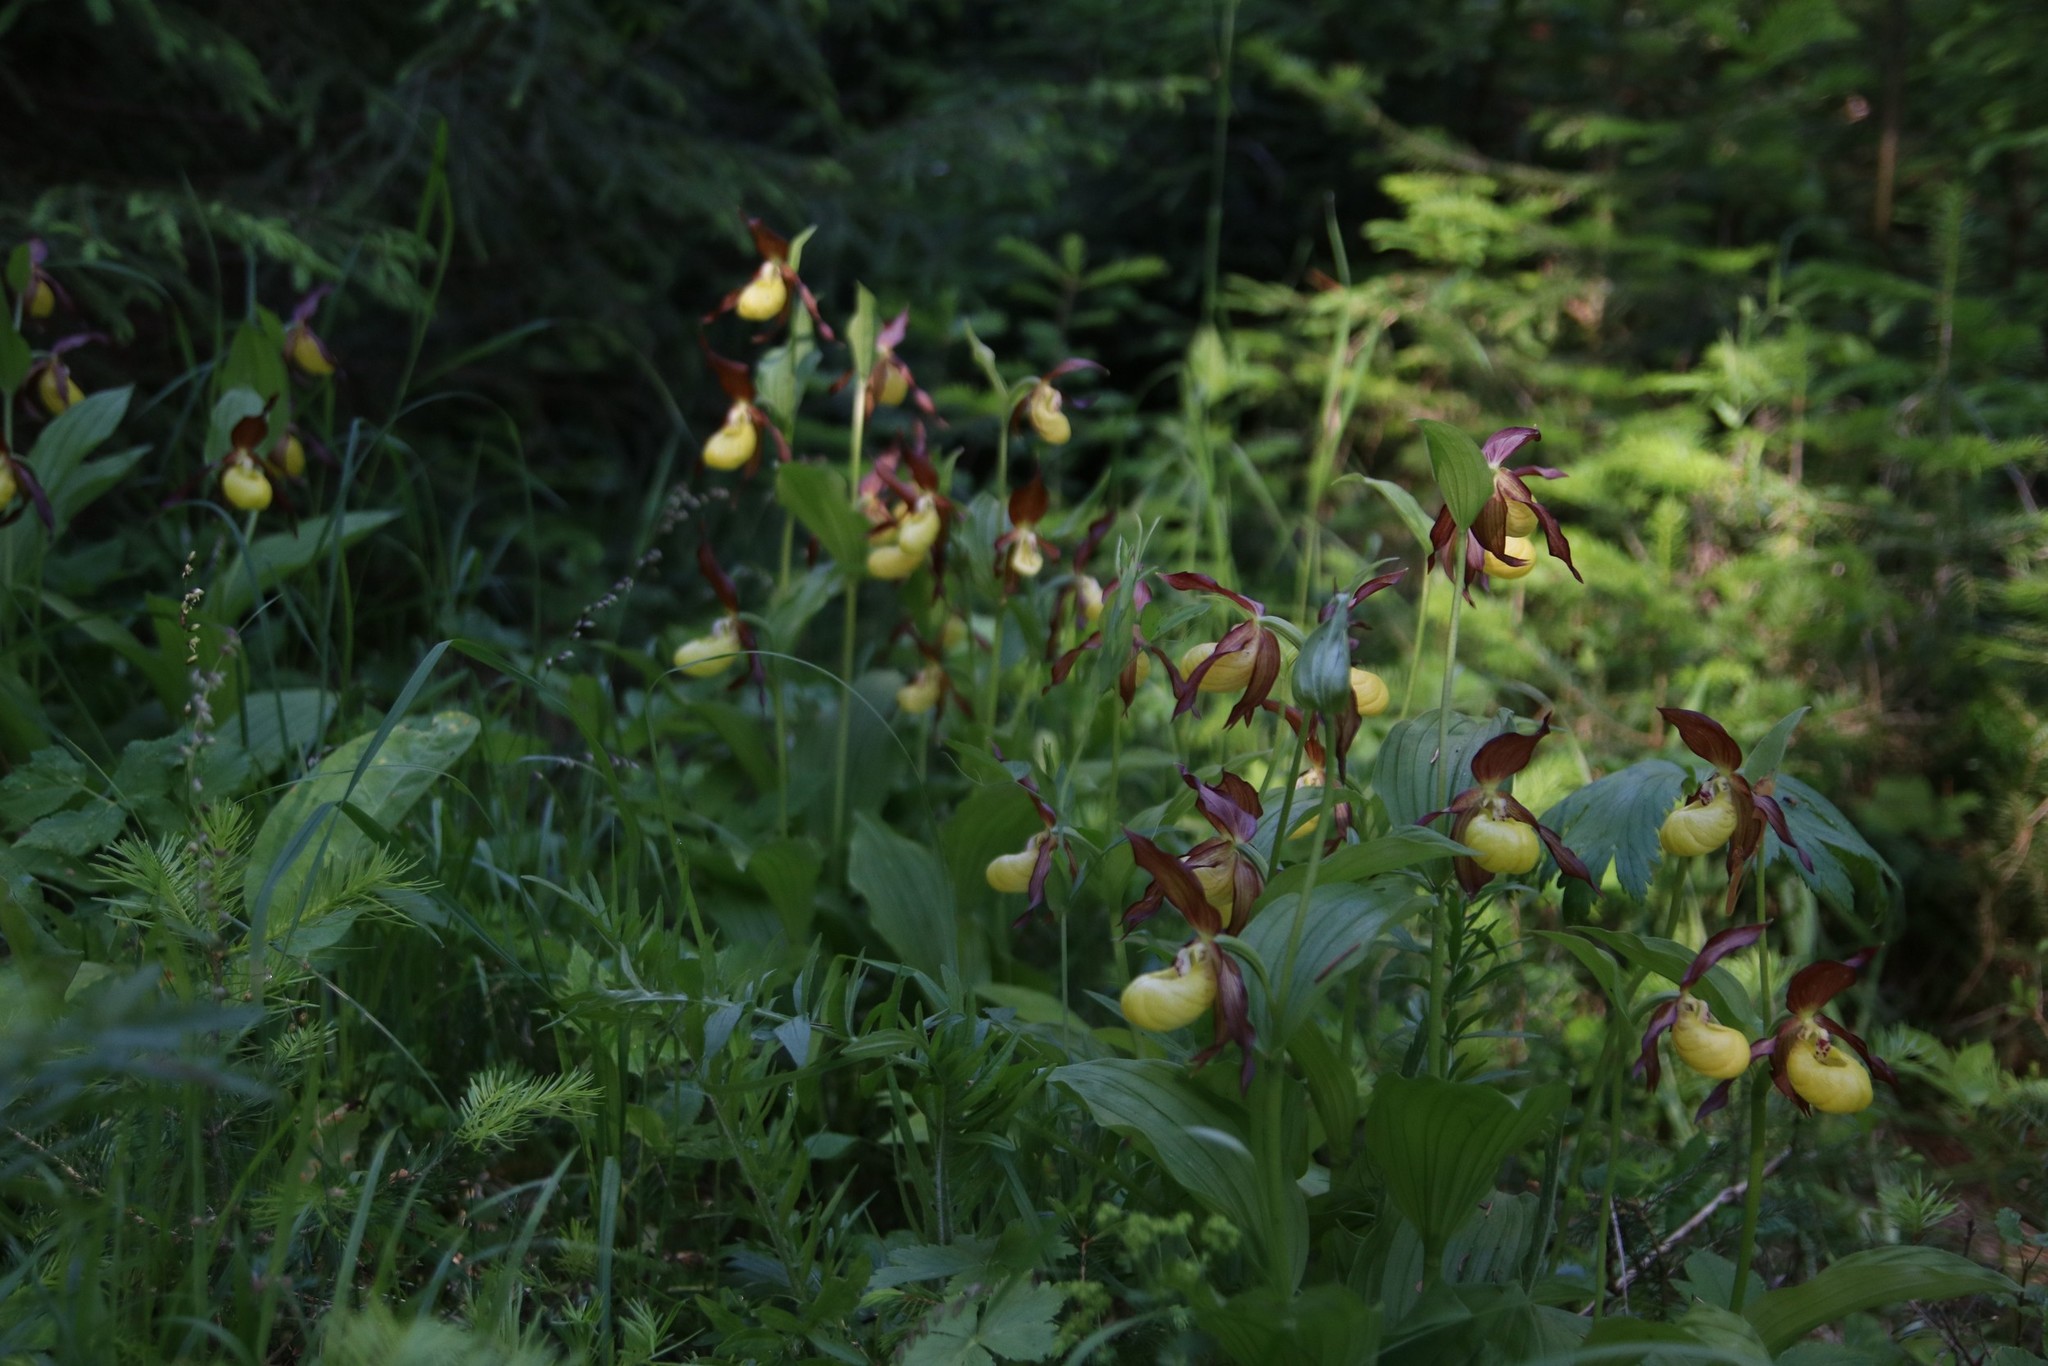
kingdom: Plantae
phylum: Tracheophyta
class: Liliopsida
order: Asparagales
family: Orchidaceae
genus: Cypripedium
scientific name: Cypripedium calceolus
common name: Lady's-slipper
